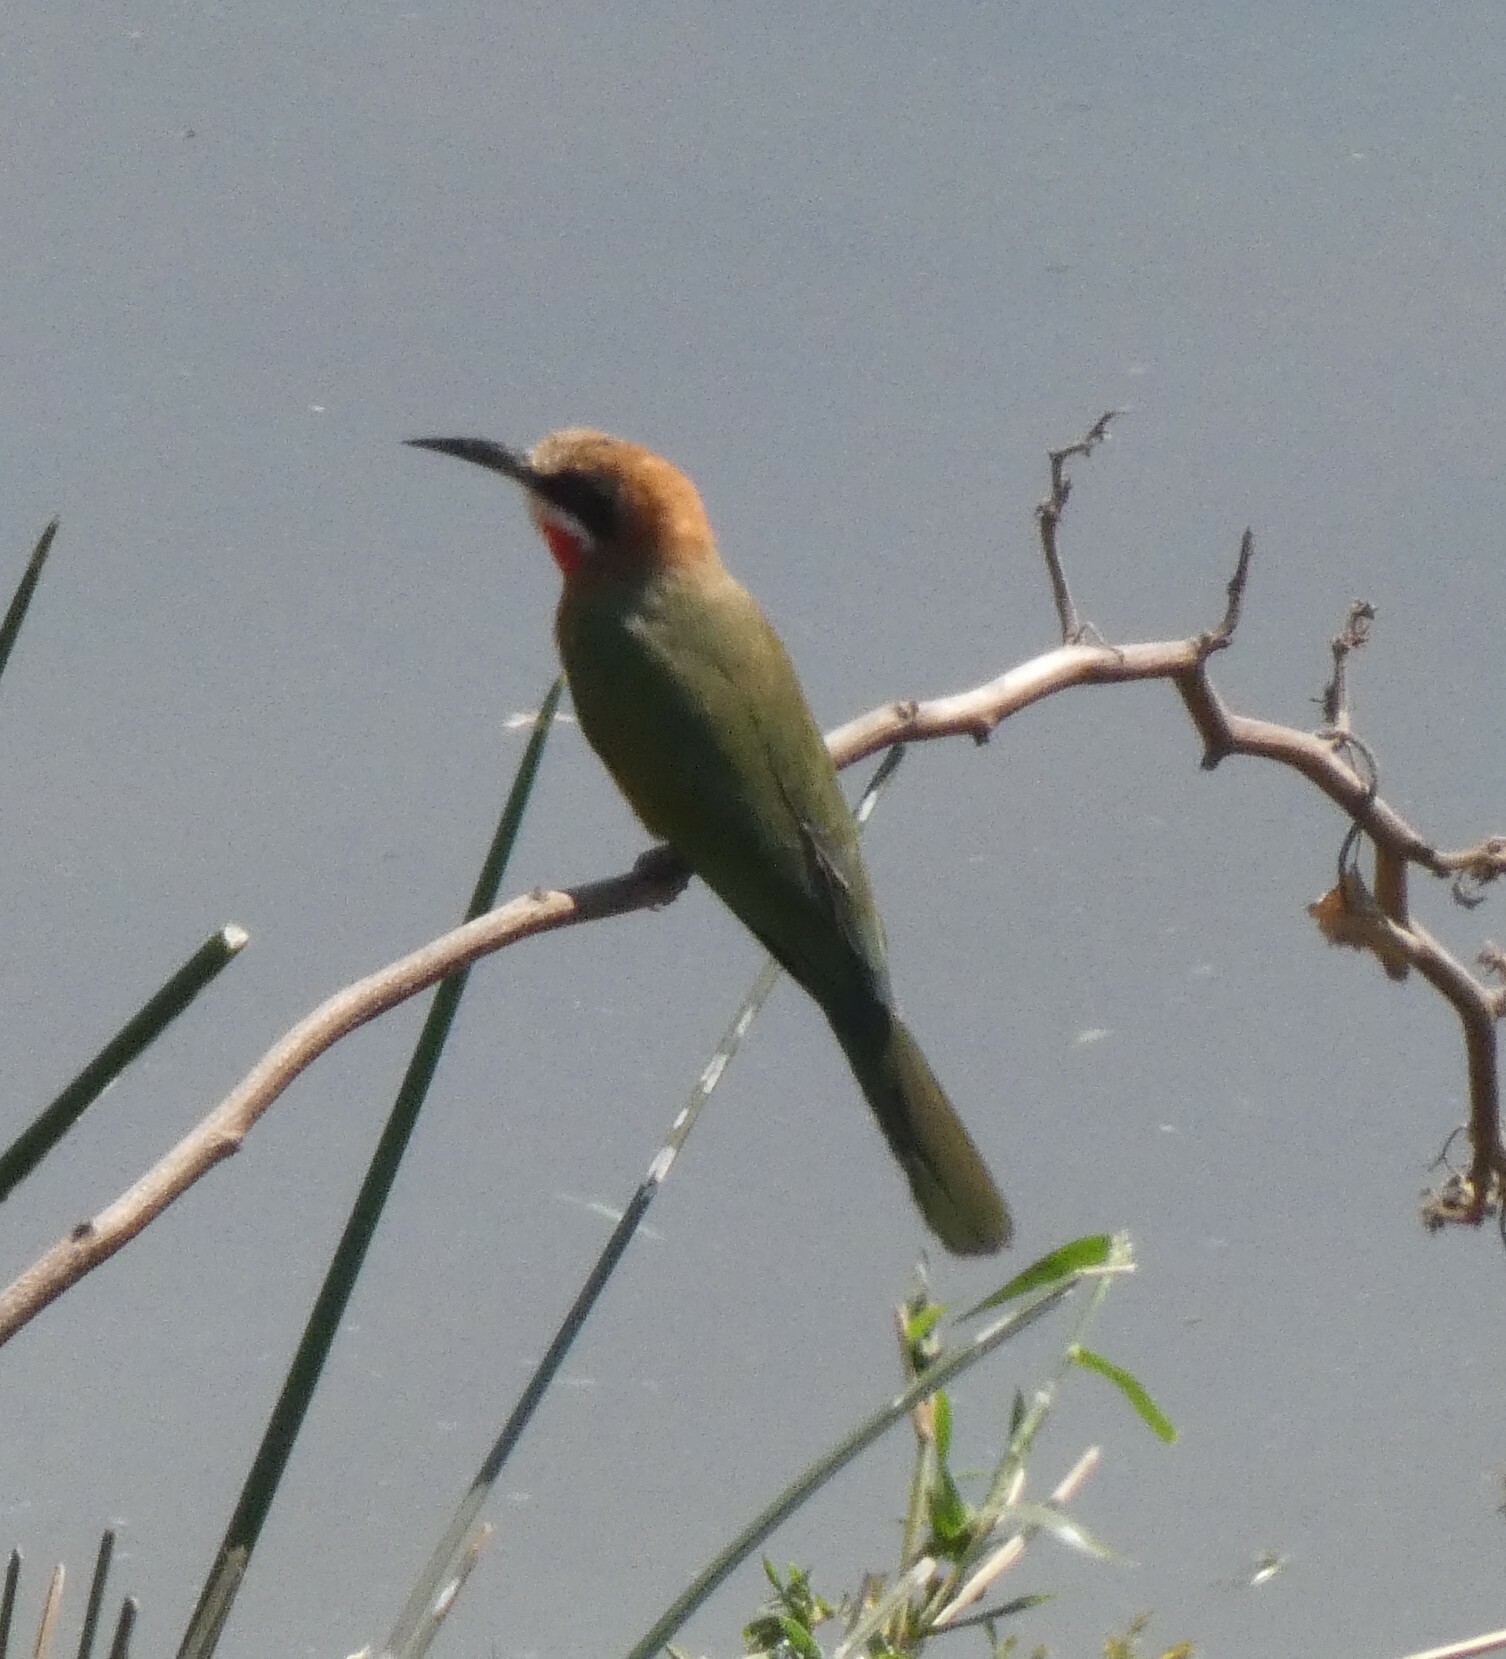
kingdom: Animalia
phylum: Chordata
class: Aves
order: Coraciiformes
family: Meropidae
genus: Merops
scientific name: Merops bullockoides
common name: White-fronted bee-eater
